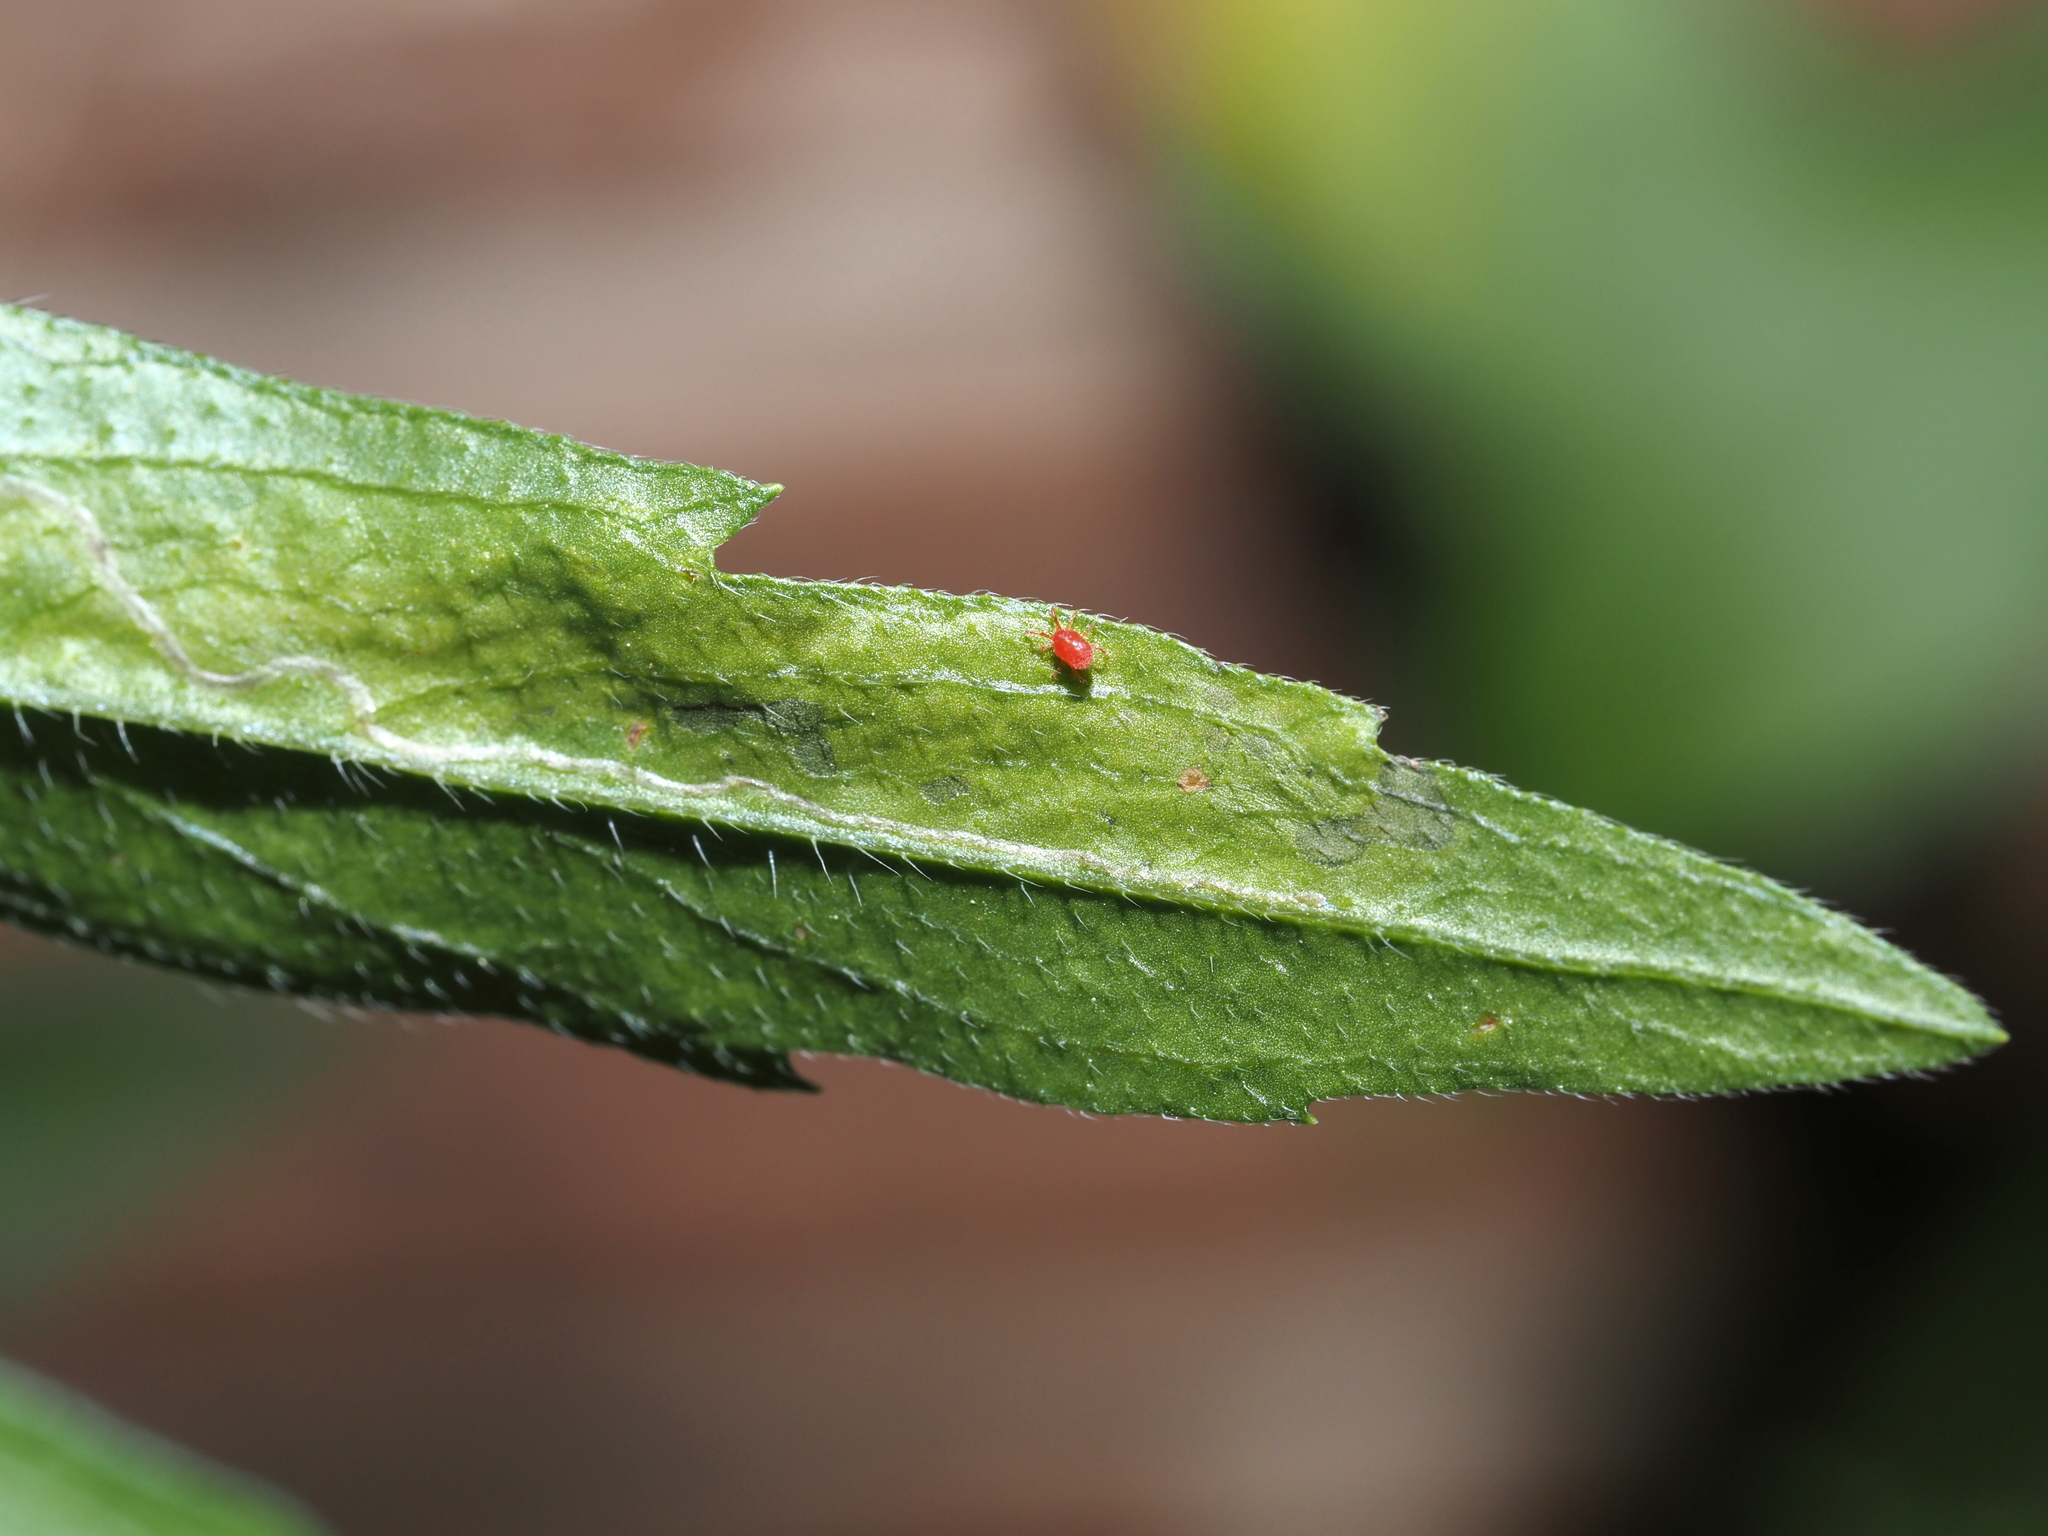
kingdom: Animalia
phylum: Arthropoda
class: Insecta
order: Lepidoptera
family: Gracillariidae
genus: Parectopa
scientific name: Parectopa plantaginisella
